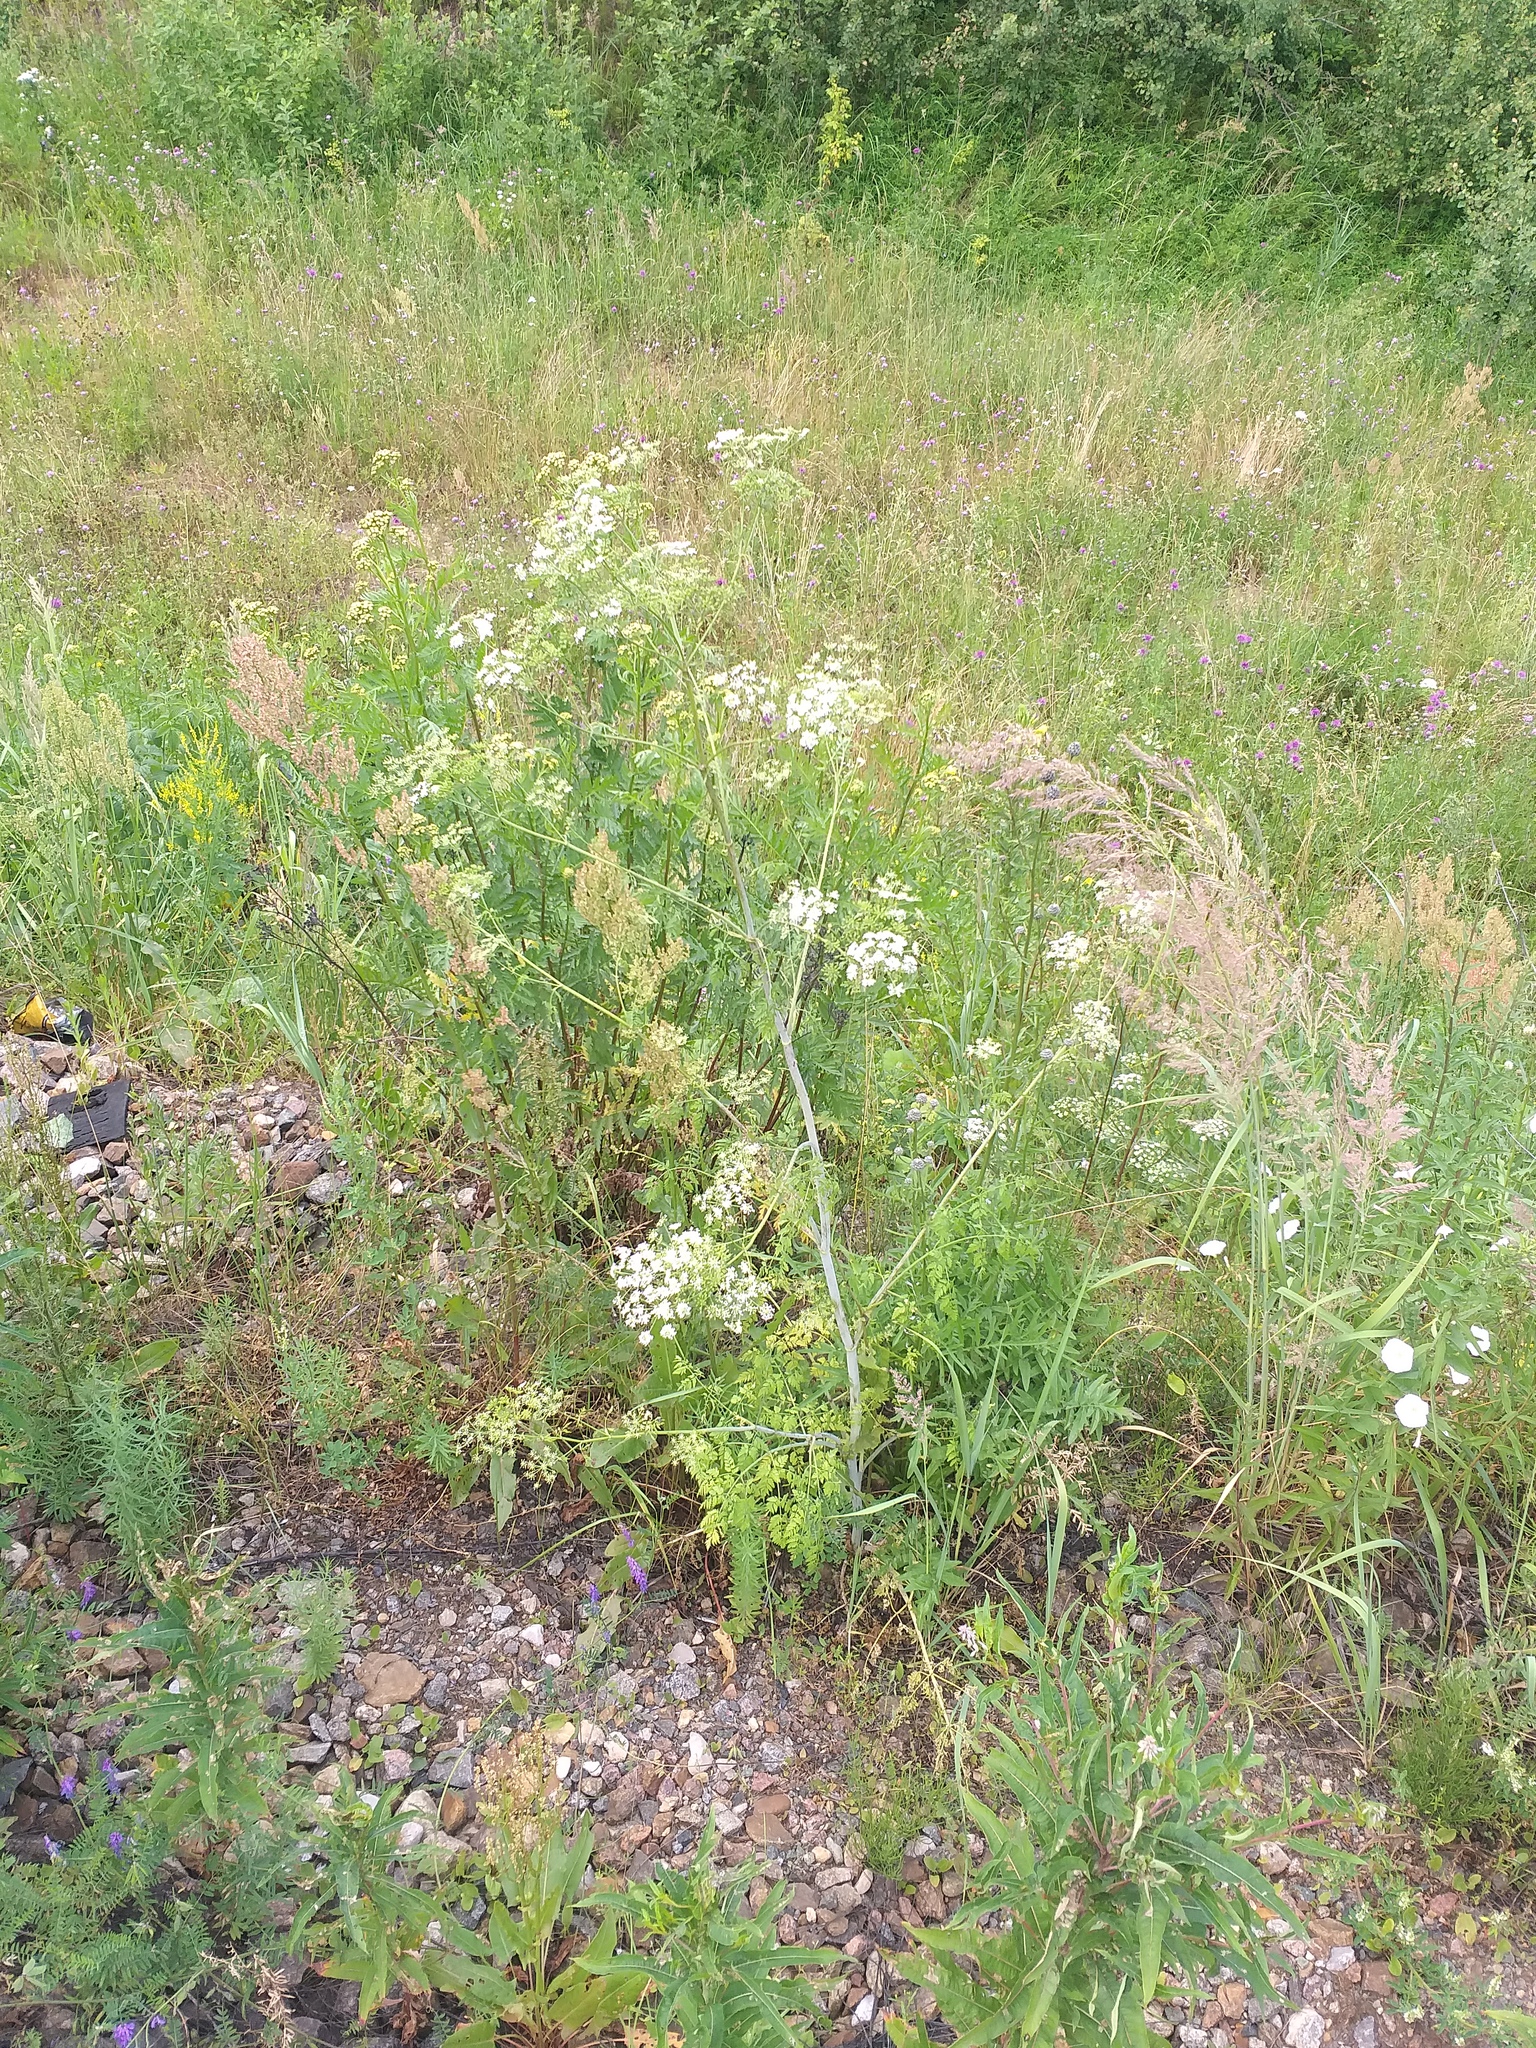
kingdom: Plantae
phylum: Tracheophyta
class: Magnoliopsida
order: Apiales
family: Apiaceae
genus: Conium
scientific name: Conium maculatum
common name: Hemlock
